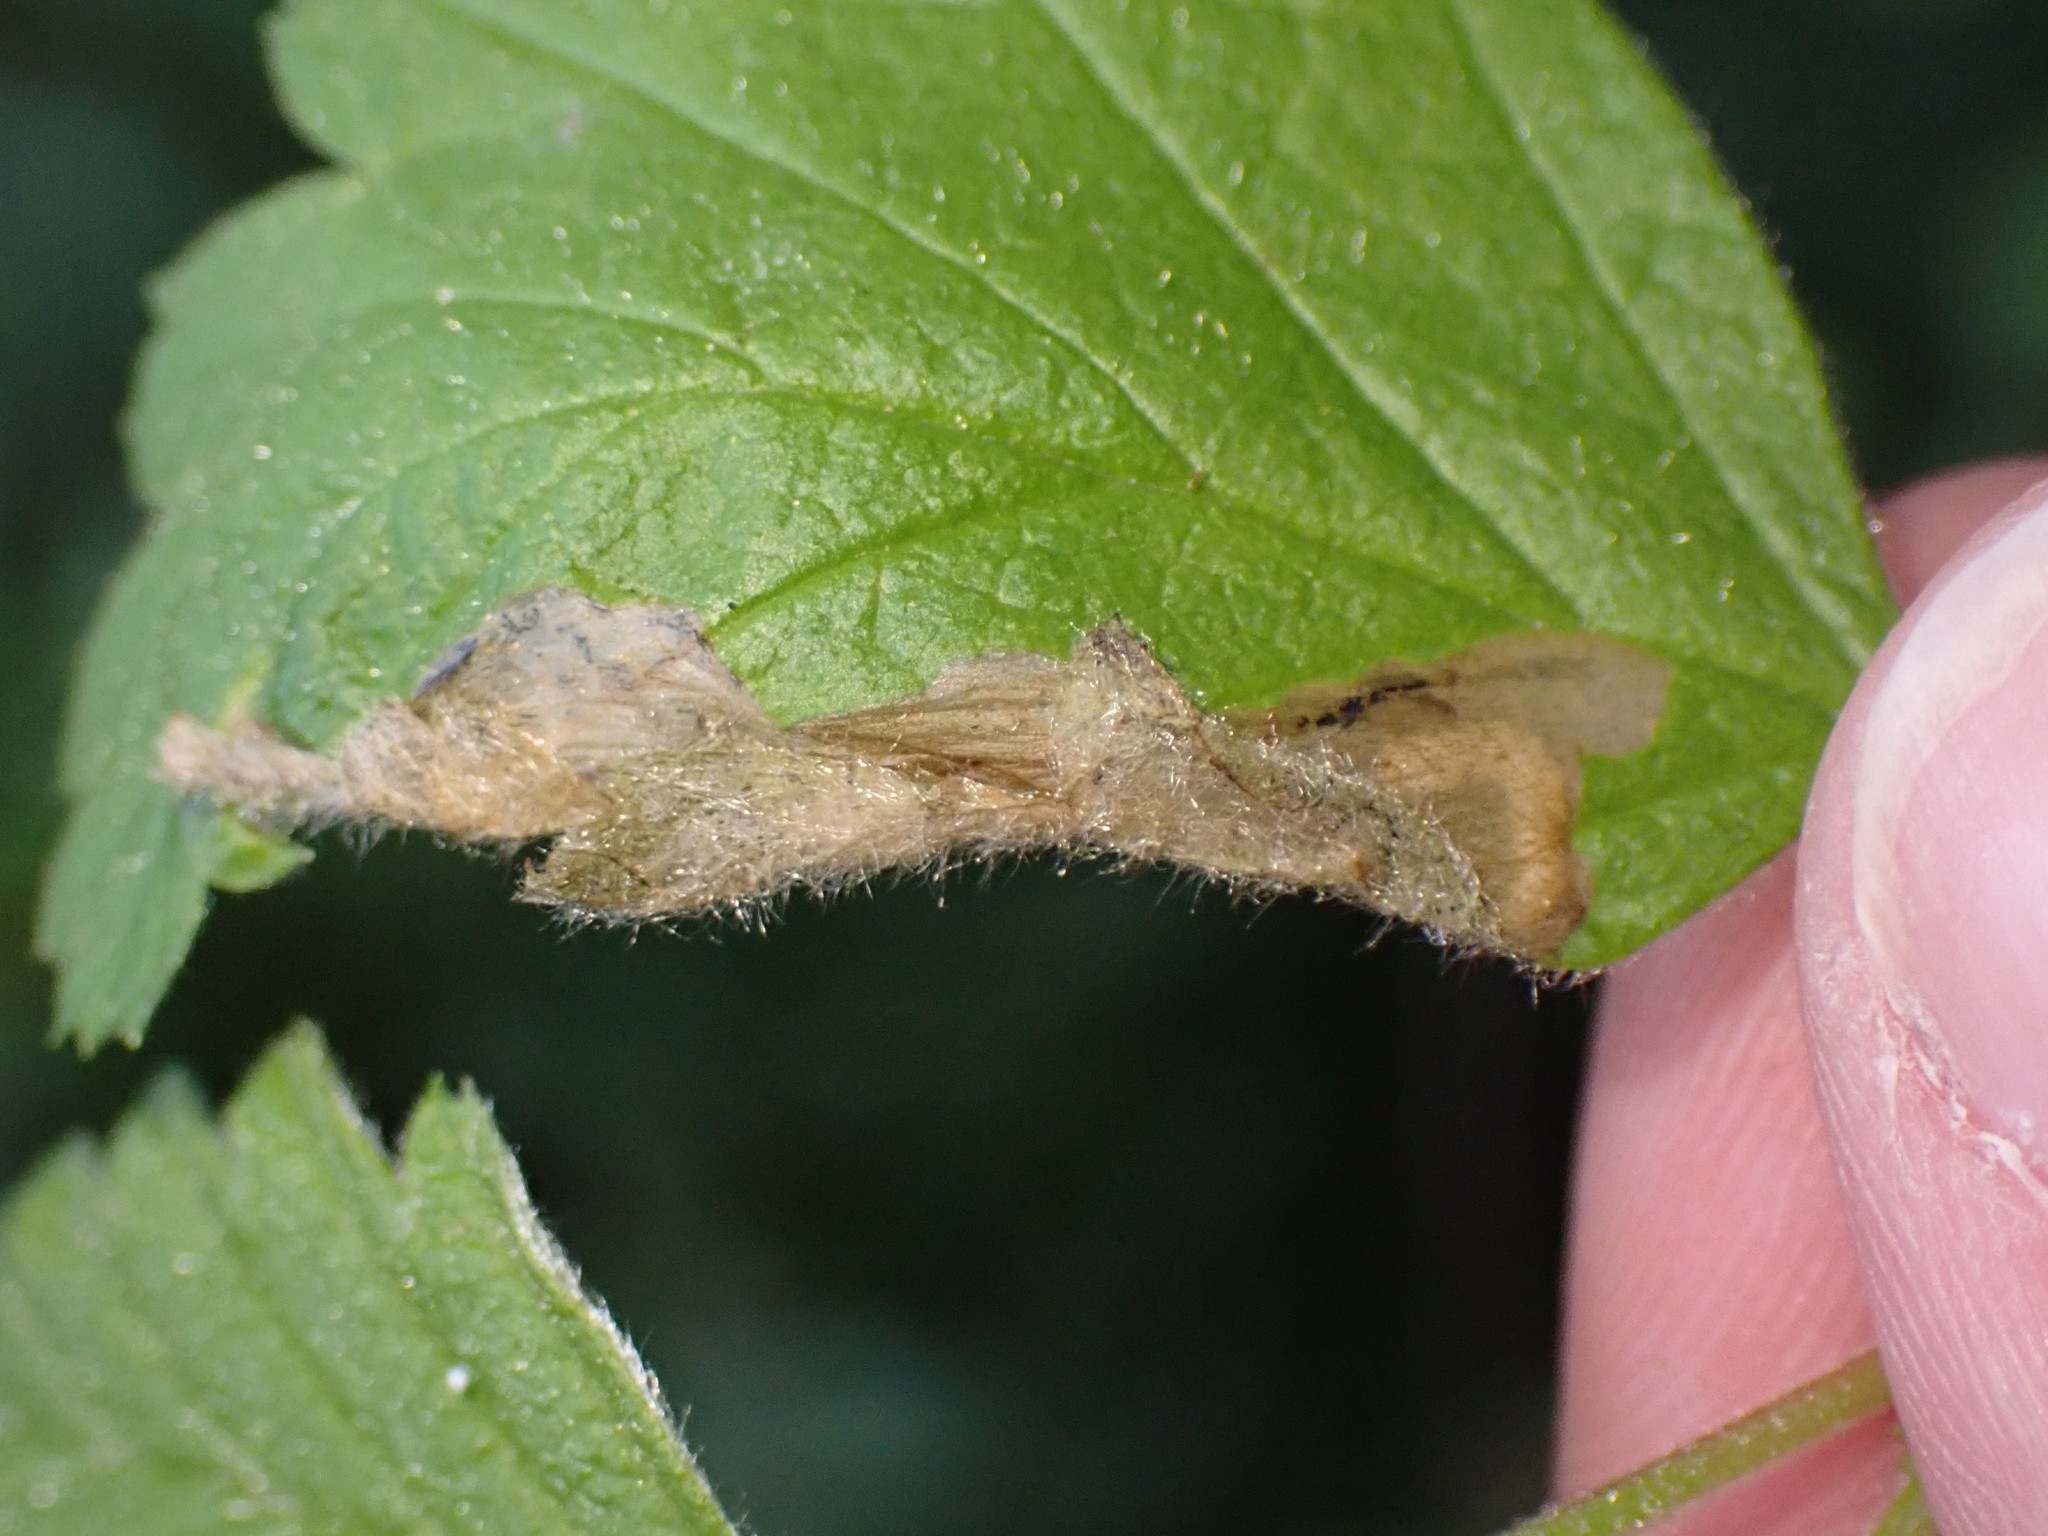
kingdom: Animalia
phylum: Arthropoda
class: Insecta
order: Lepidoptera
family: Eriocraniidae
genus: Eriocrania
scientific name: Eriocrania semipurpurella
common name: Early purple
